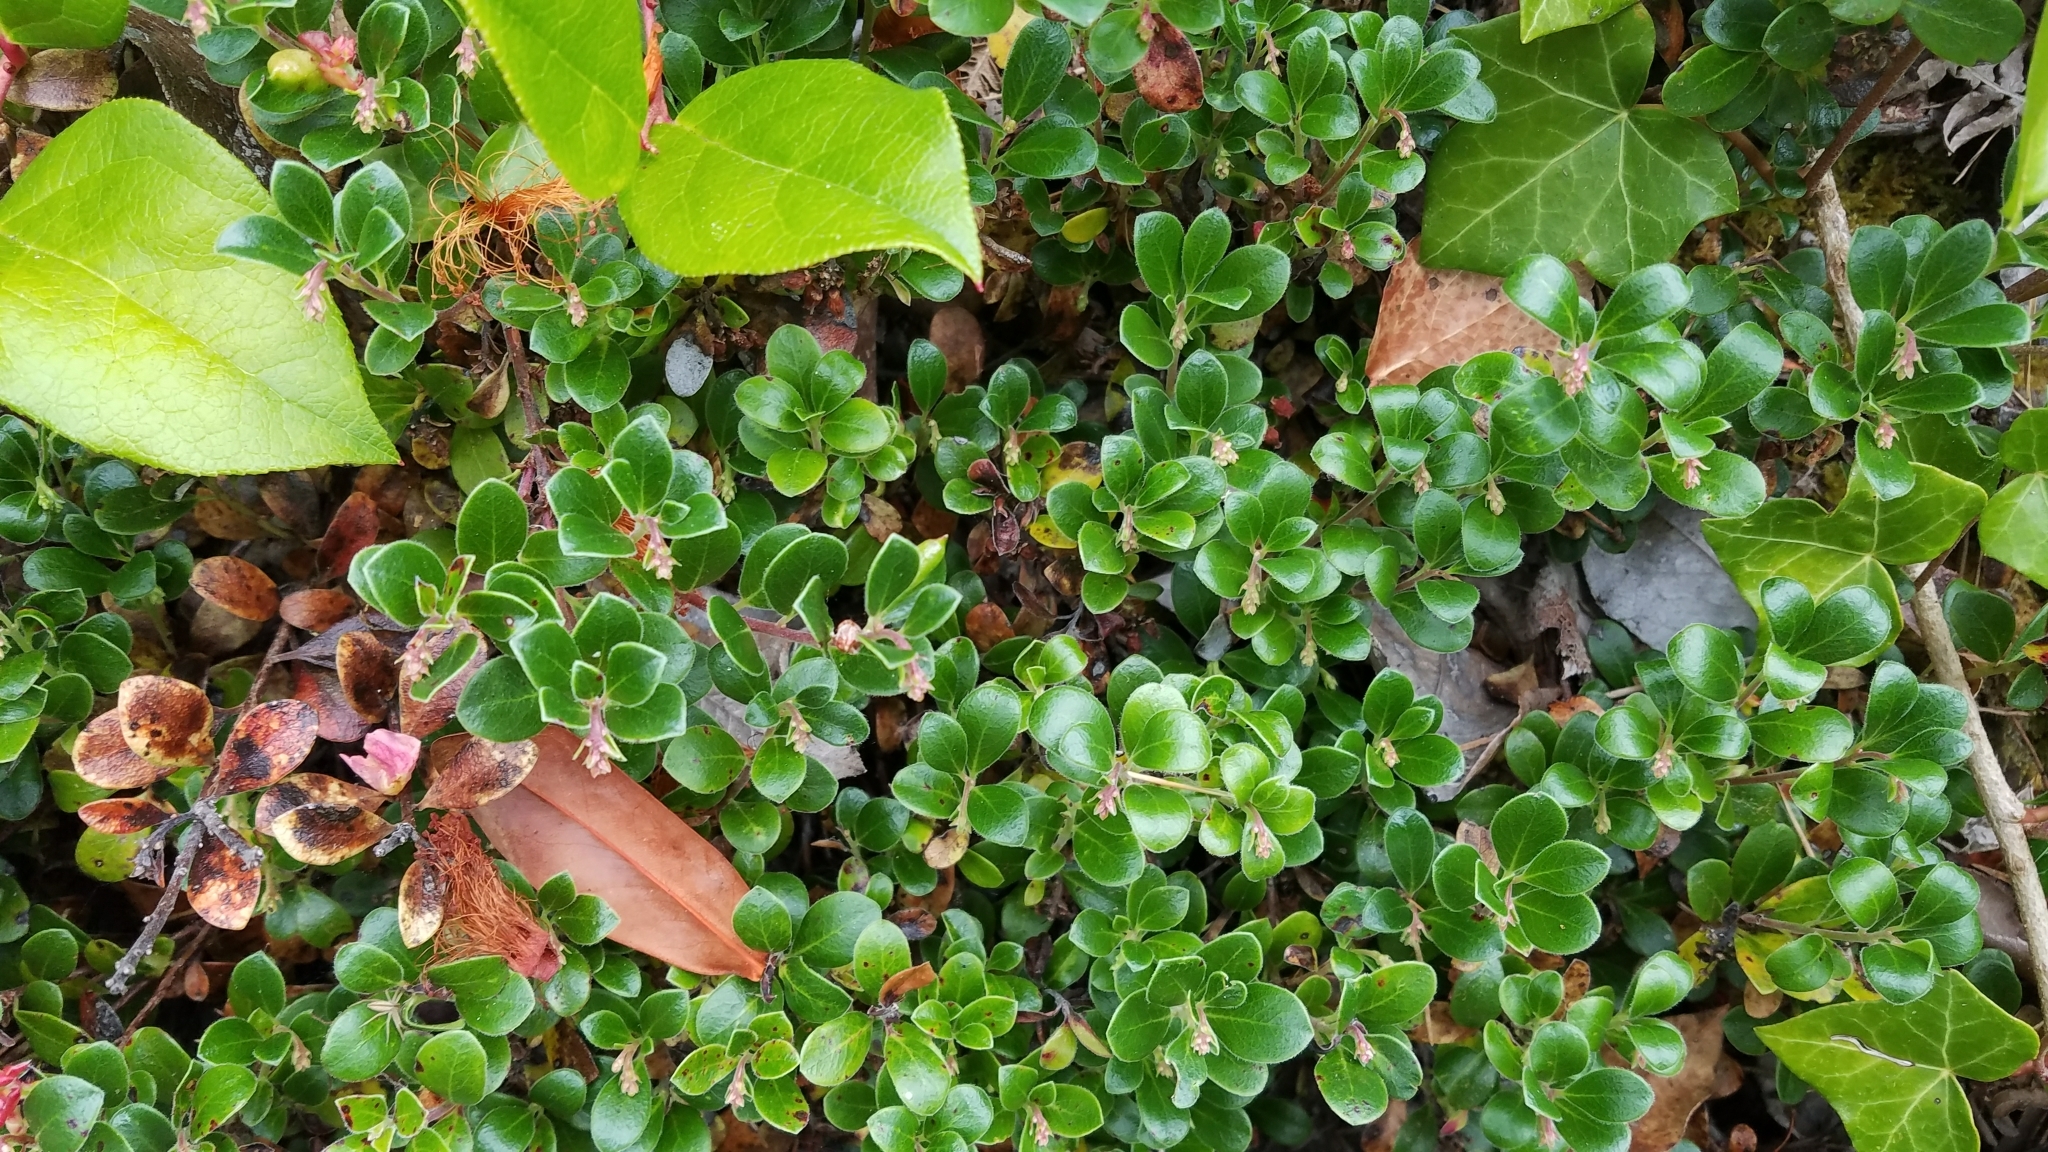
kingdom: Plantae
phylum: Tracheophyta
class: Magnoliopsida
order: Ericales
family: Ericaceae
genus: Arctostaphylos
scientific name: Arctostaphylos uva-ursi
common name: Bearberry
